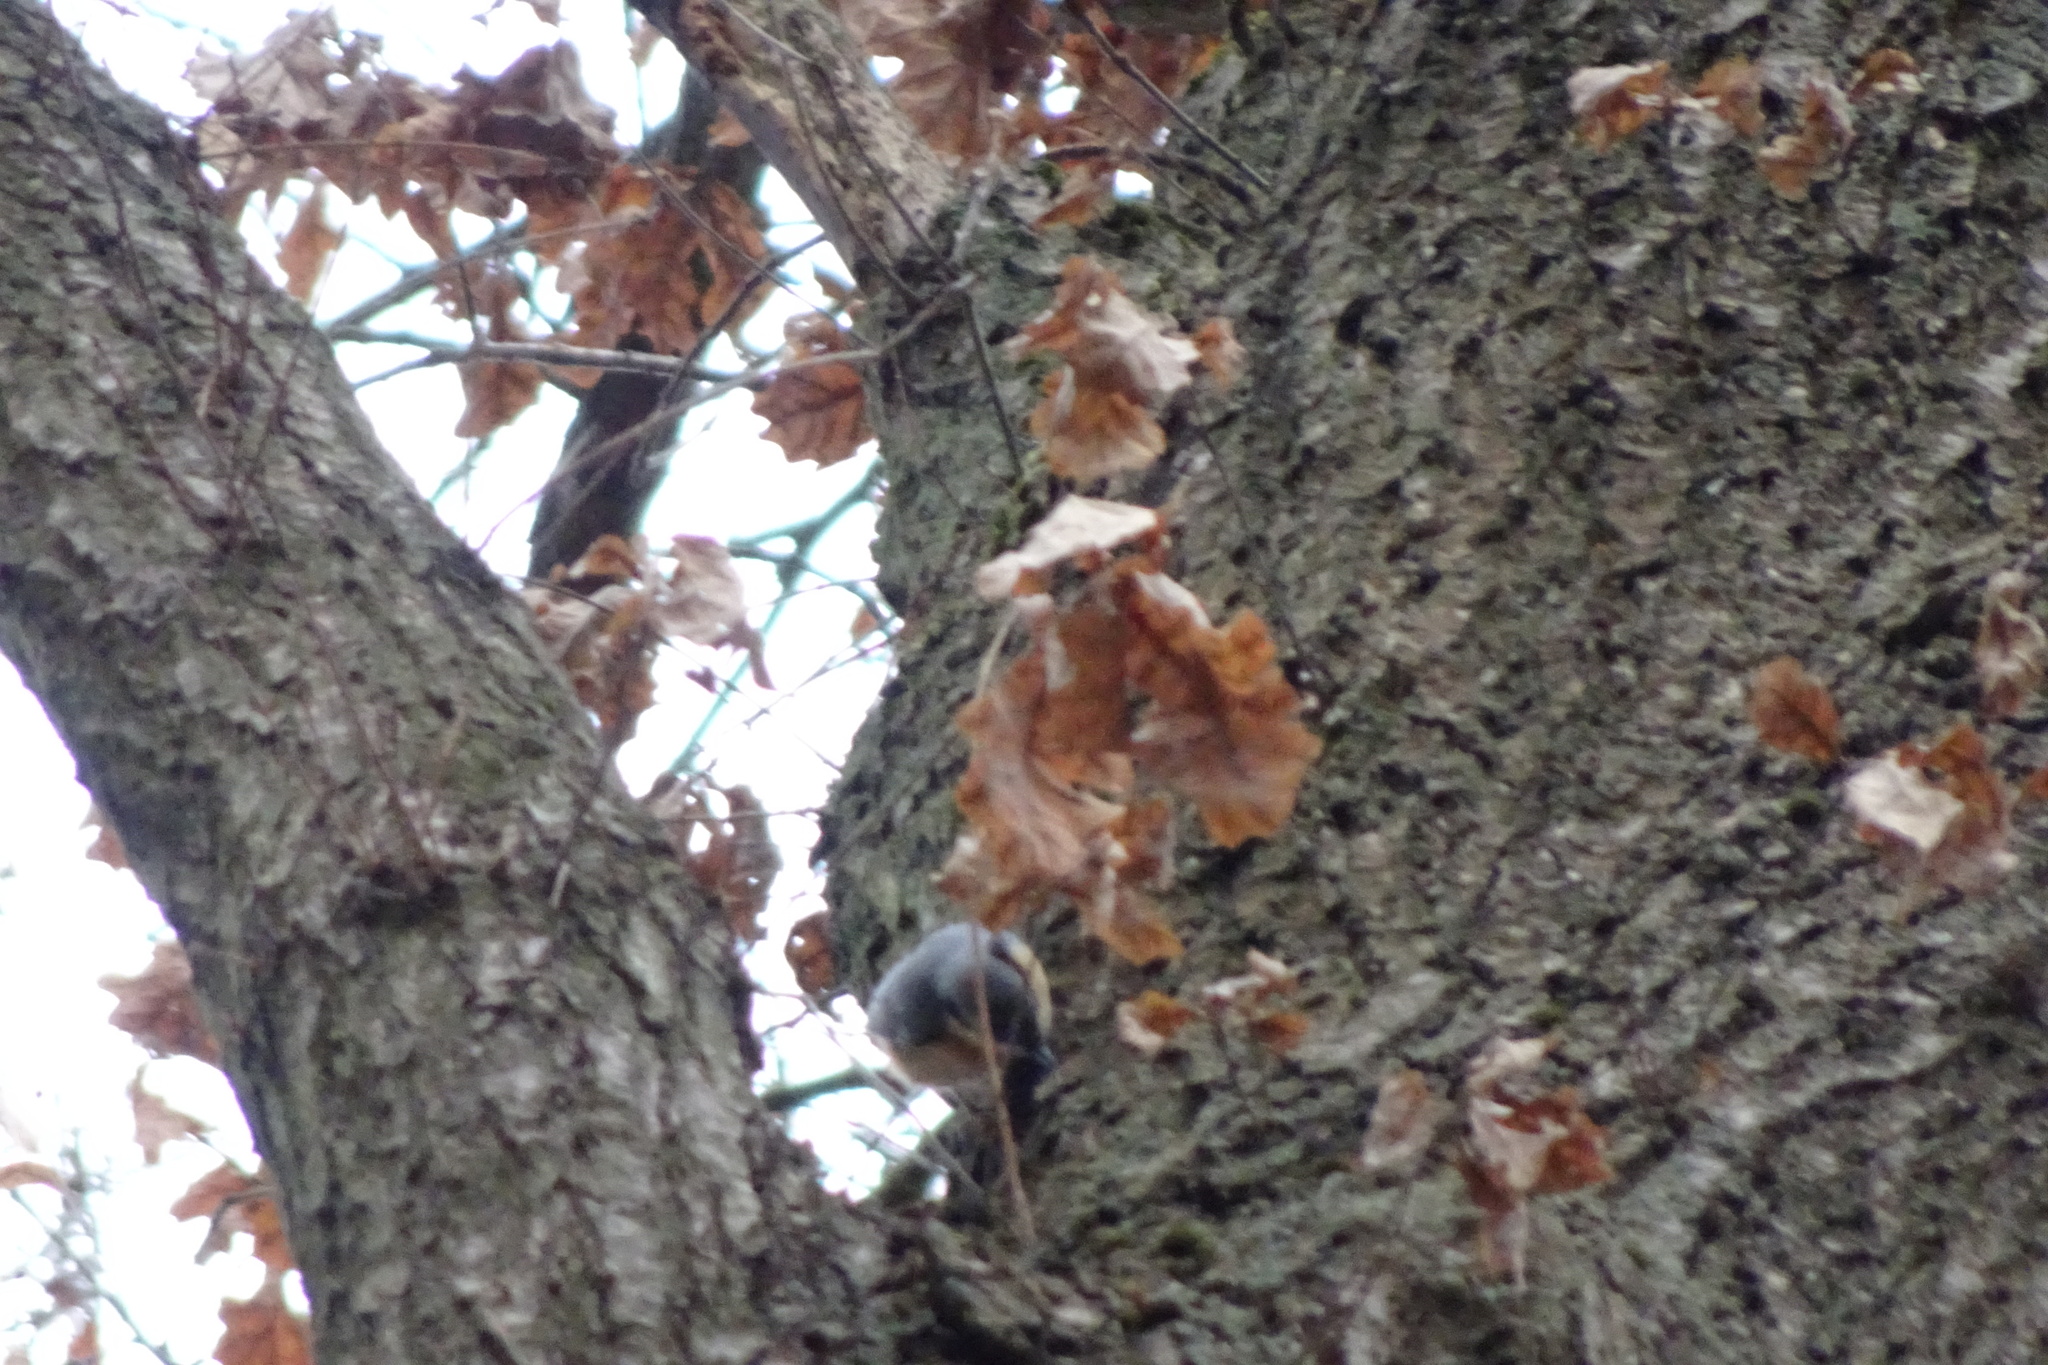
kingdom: Animalia
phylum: Chordata
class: Aves
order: Passeriformes
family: Sittidae
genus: Sitta
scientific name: Sitta europaea
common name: Eurasian nuthatch
